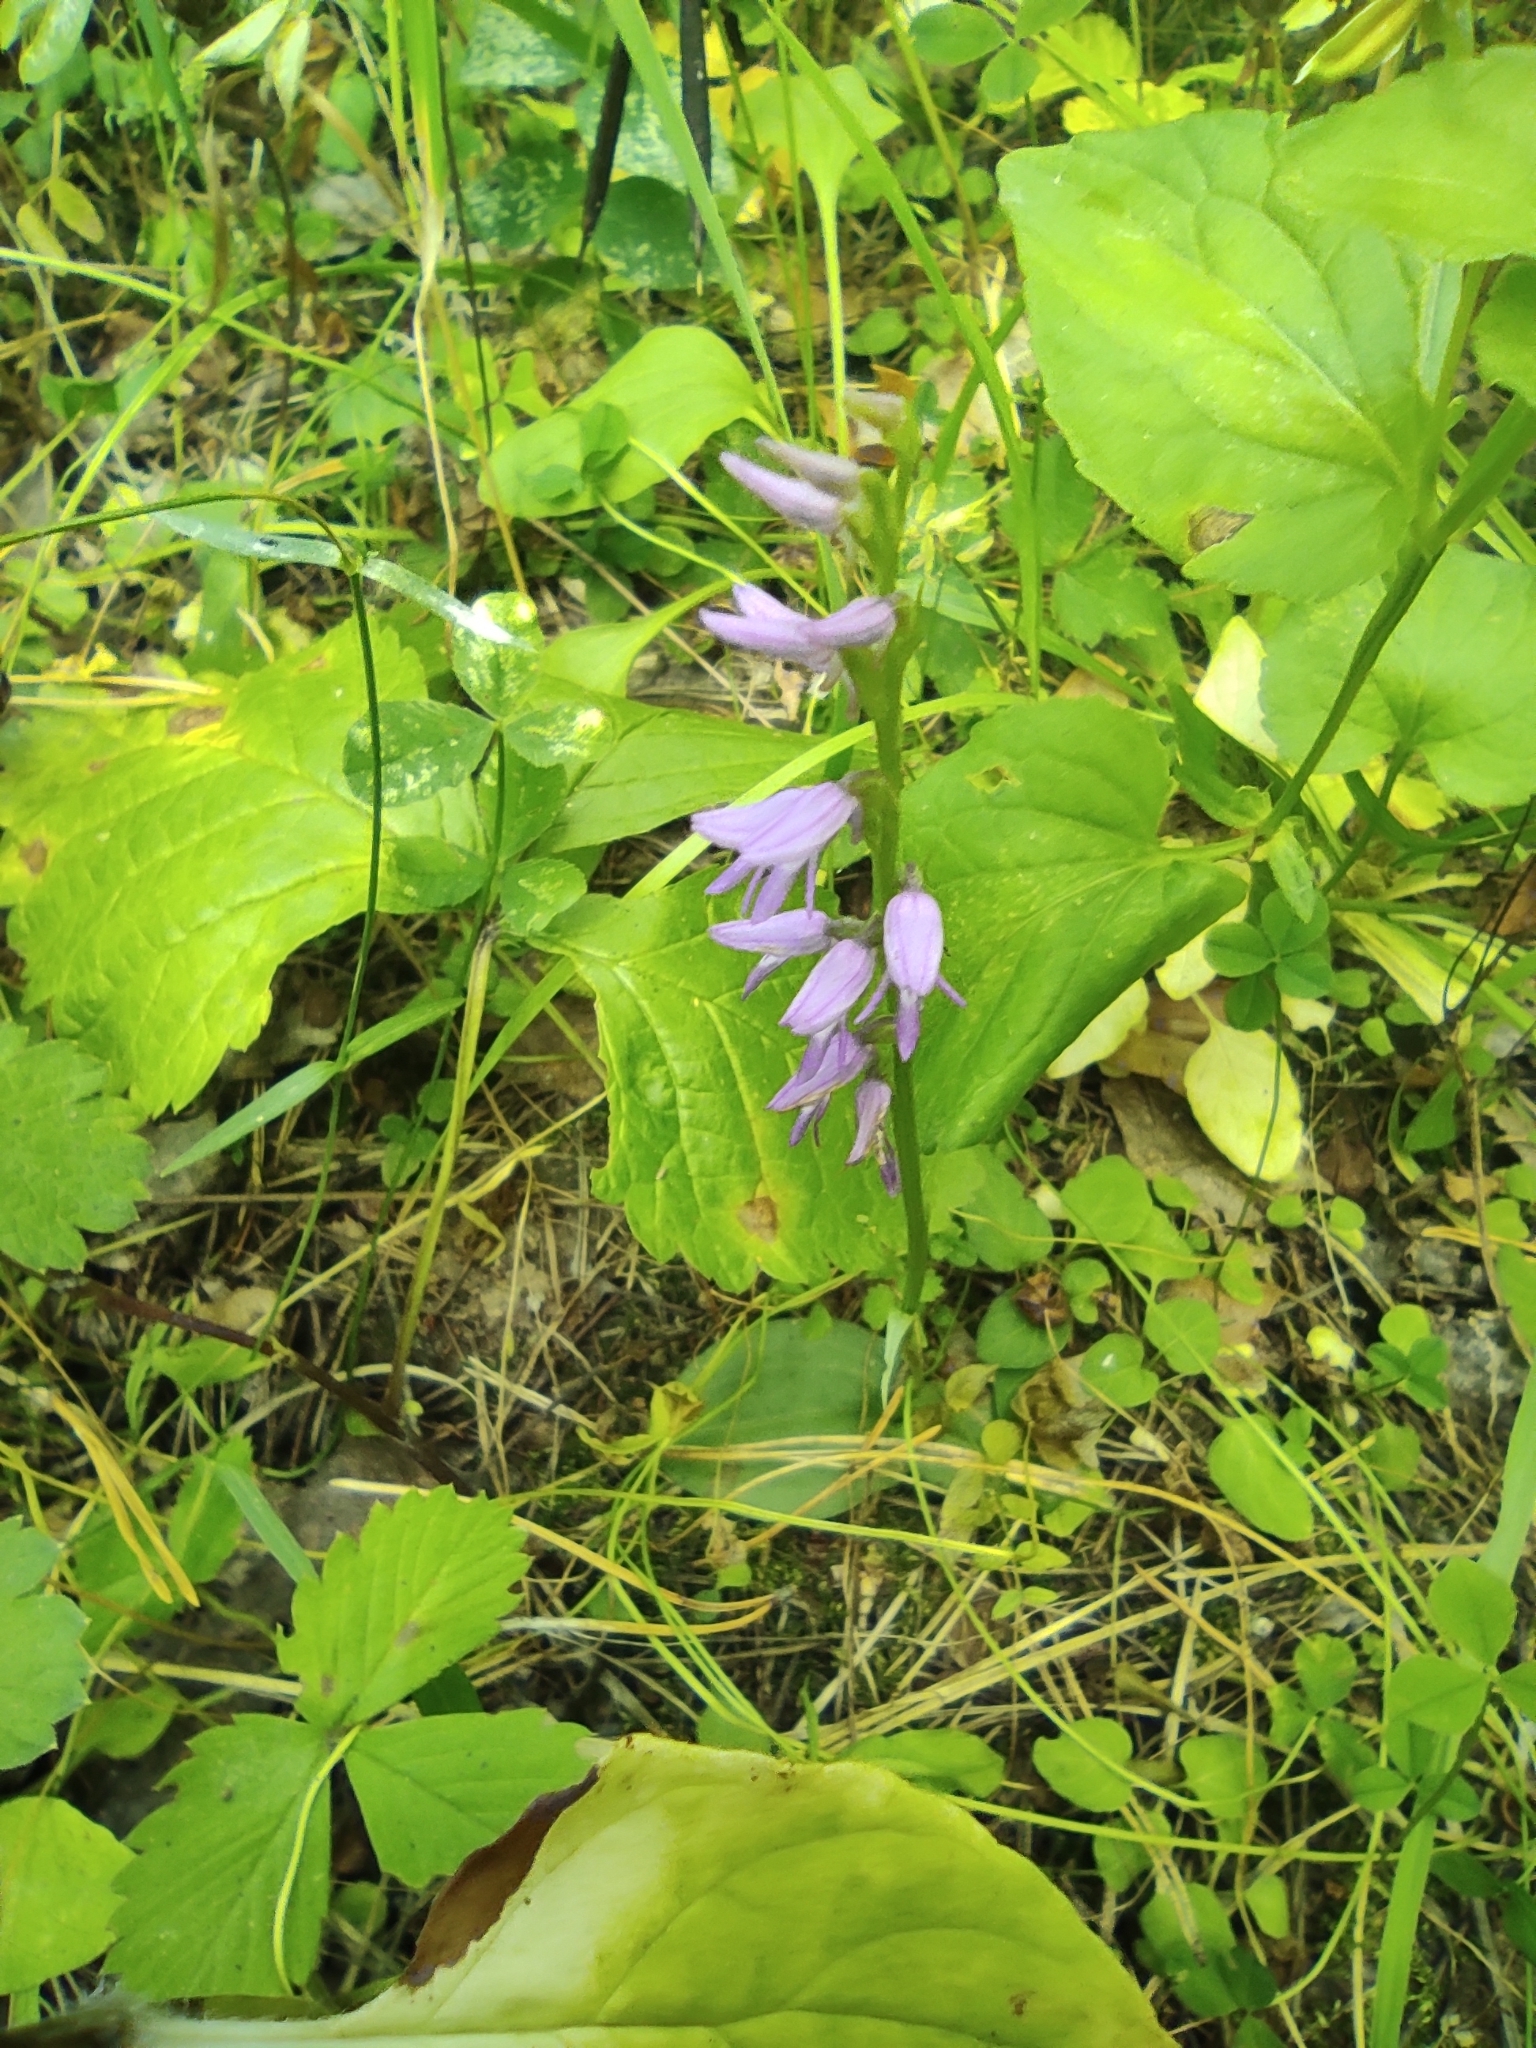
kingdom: Plantae
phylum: Tracheophyta
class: Liliopsida
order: Asparagales
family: Orchidaceae
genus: Hemipilia
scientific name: Hemipilia cucullata
